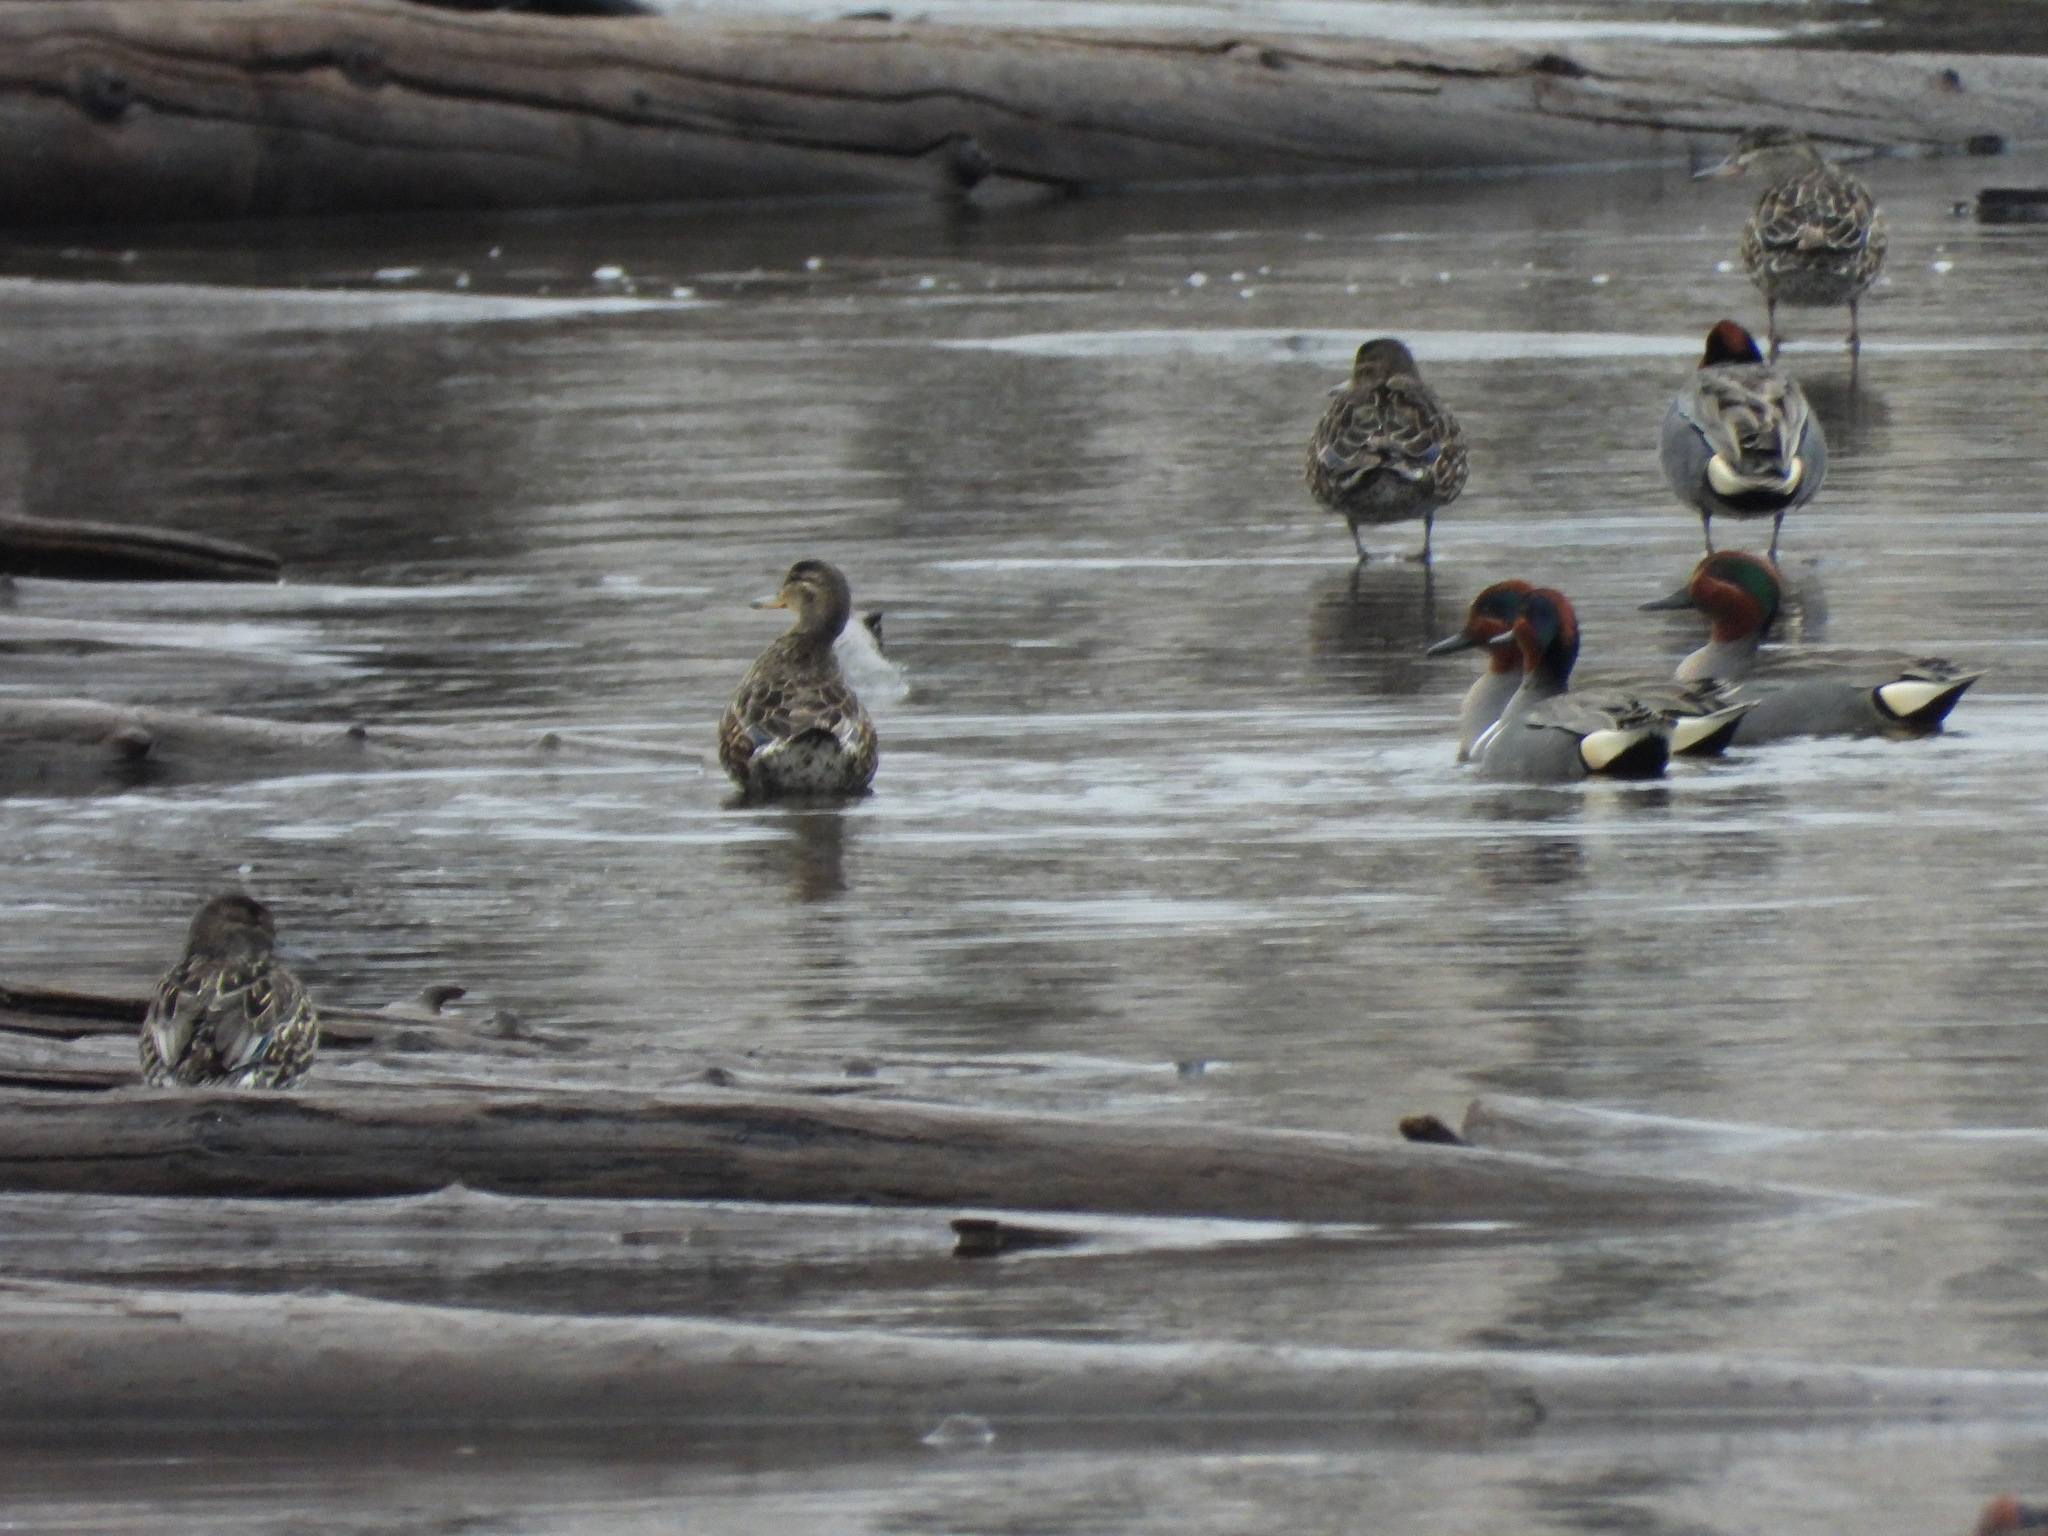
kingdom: Animalia
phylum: Chordata
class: Aves
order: Anseriformes
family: Anatidae
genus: Anas
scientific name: Anas crecca
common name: Eurasian teal
